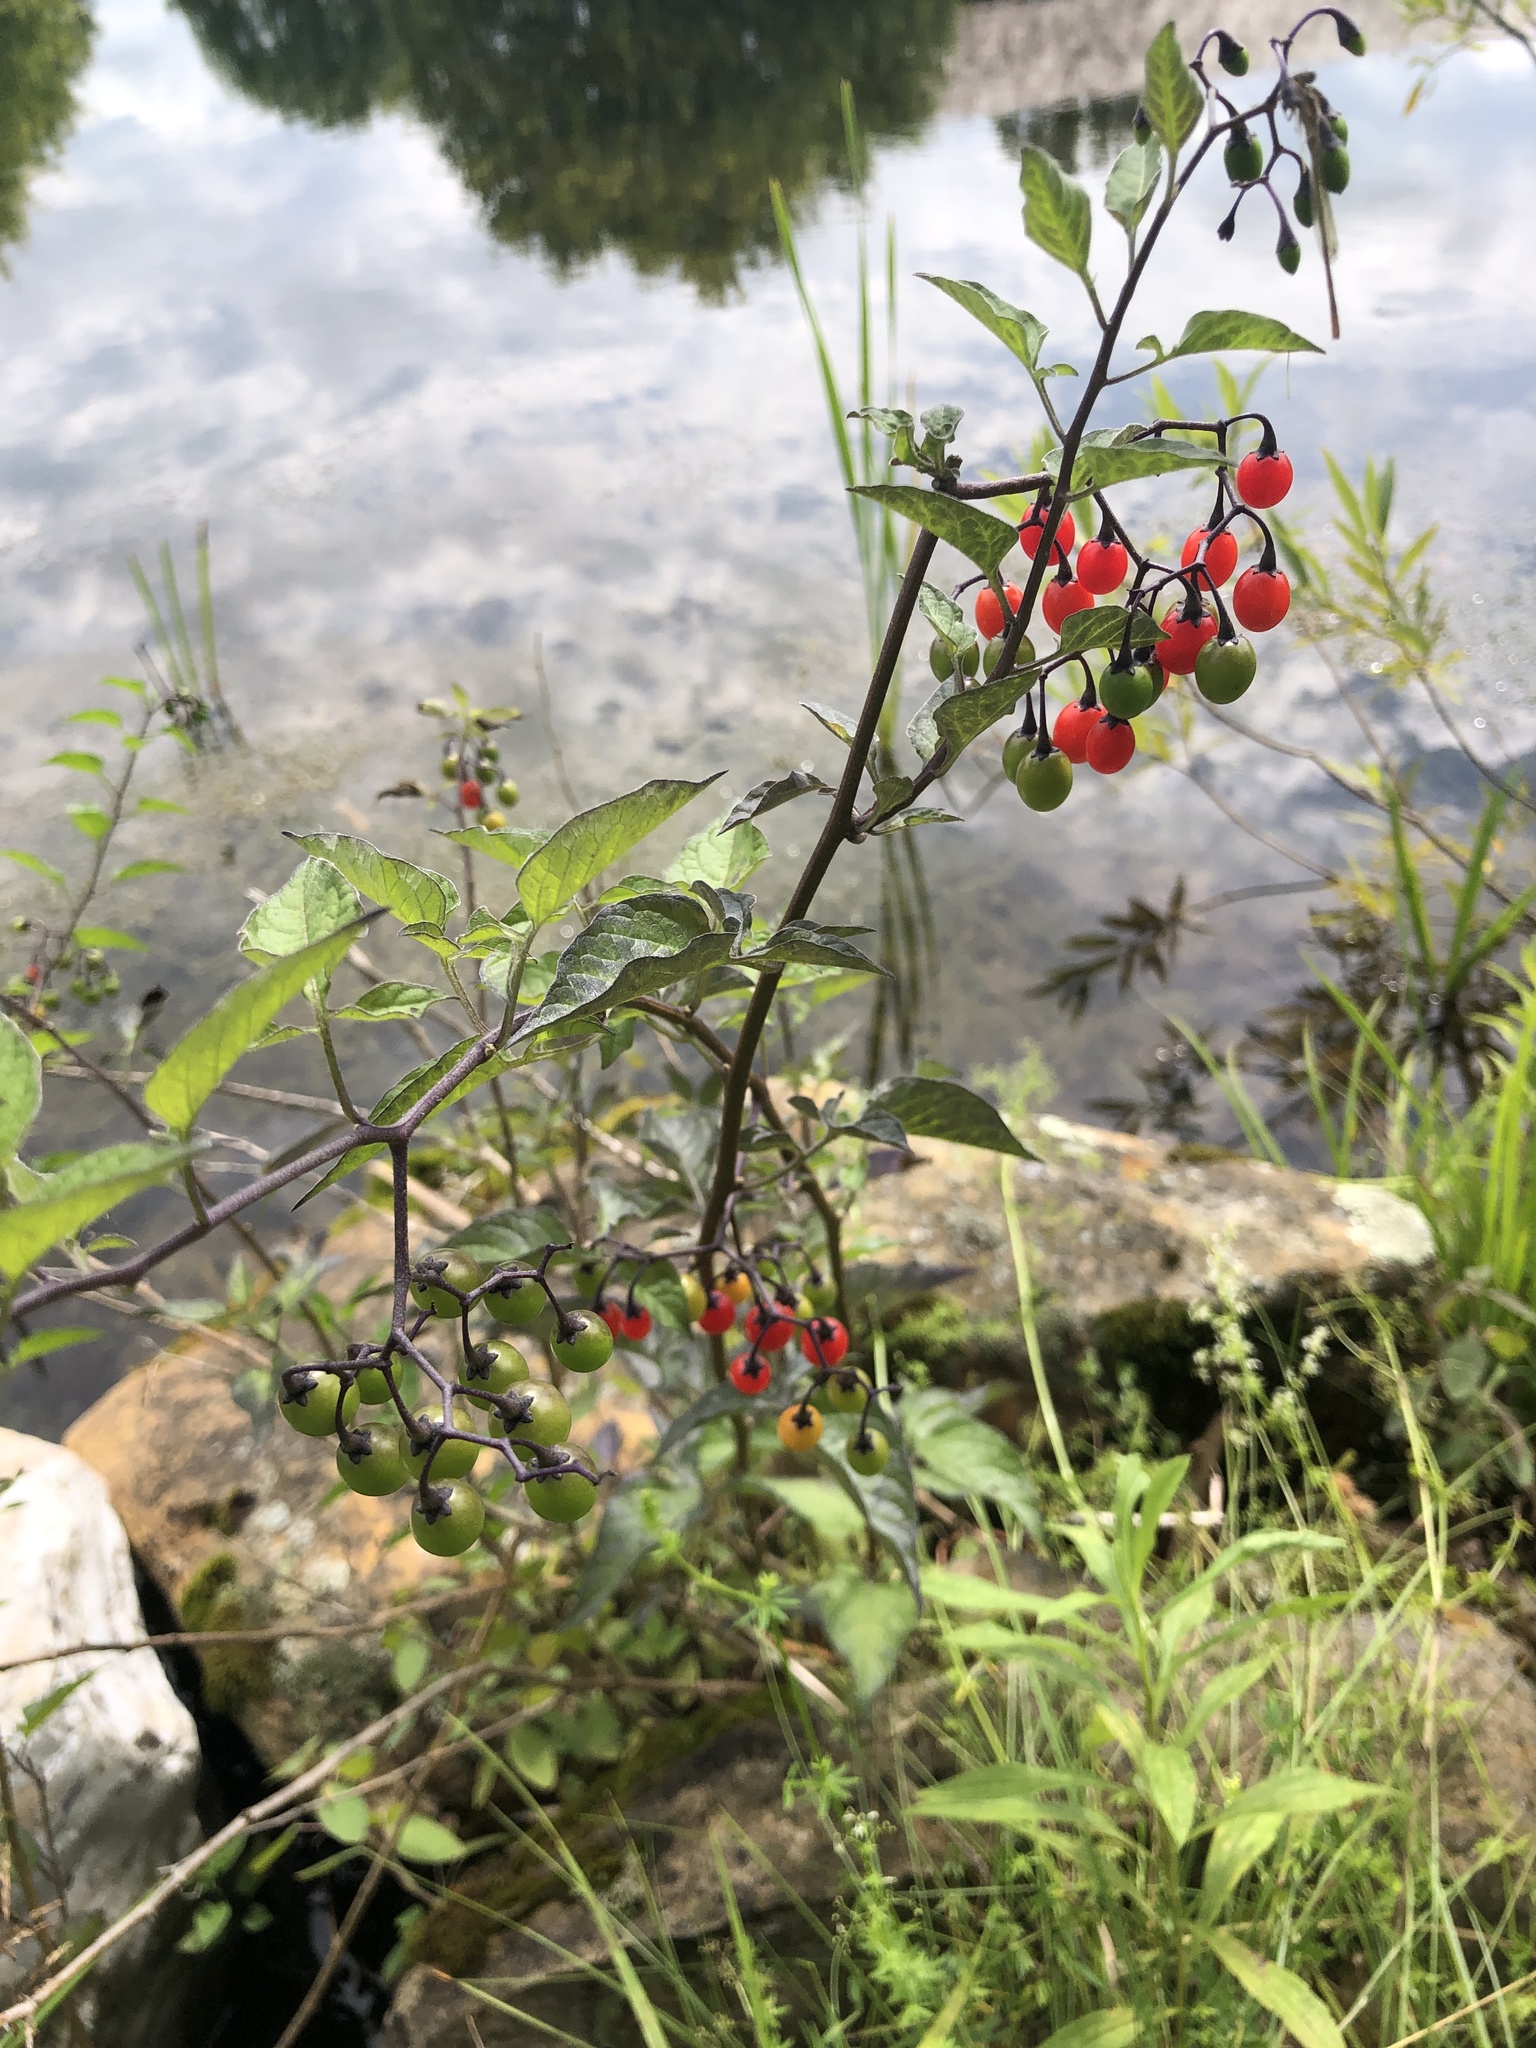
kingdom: Plantae
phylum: Tracheophyta
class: Magnoliopsida
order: Solanales
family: Solanaceae
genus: Solanum
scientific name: Solanum dulcamara
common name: Climbing nightshade
